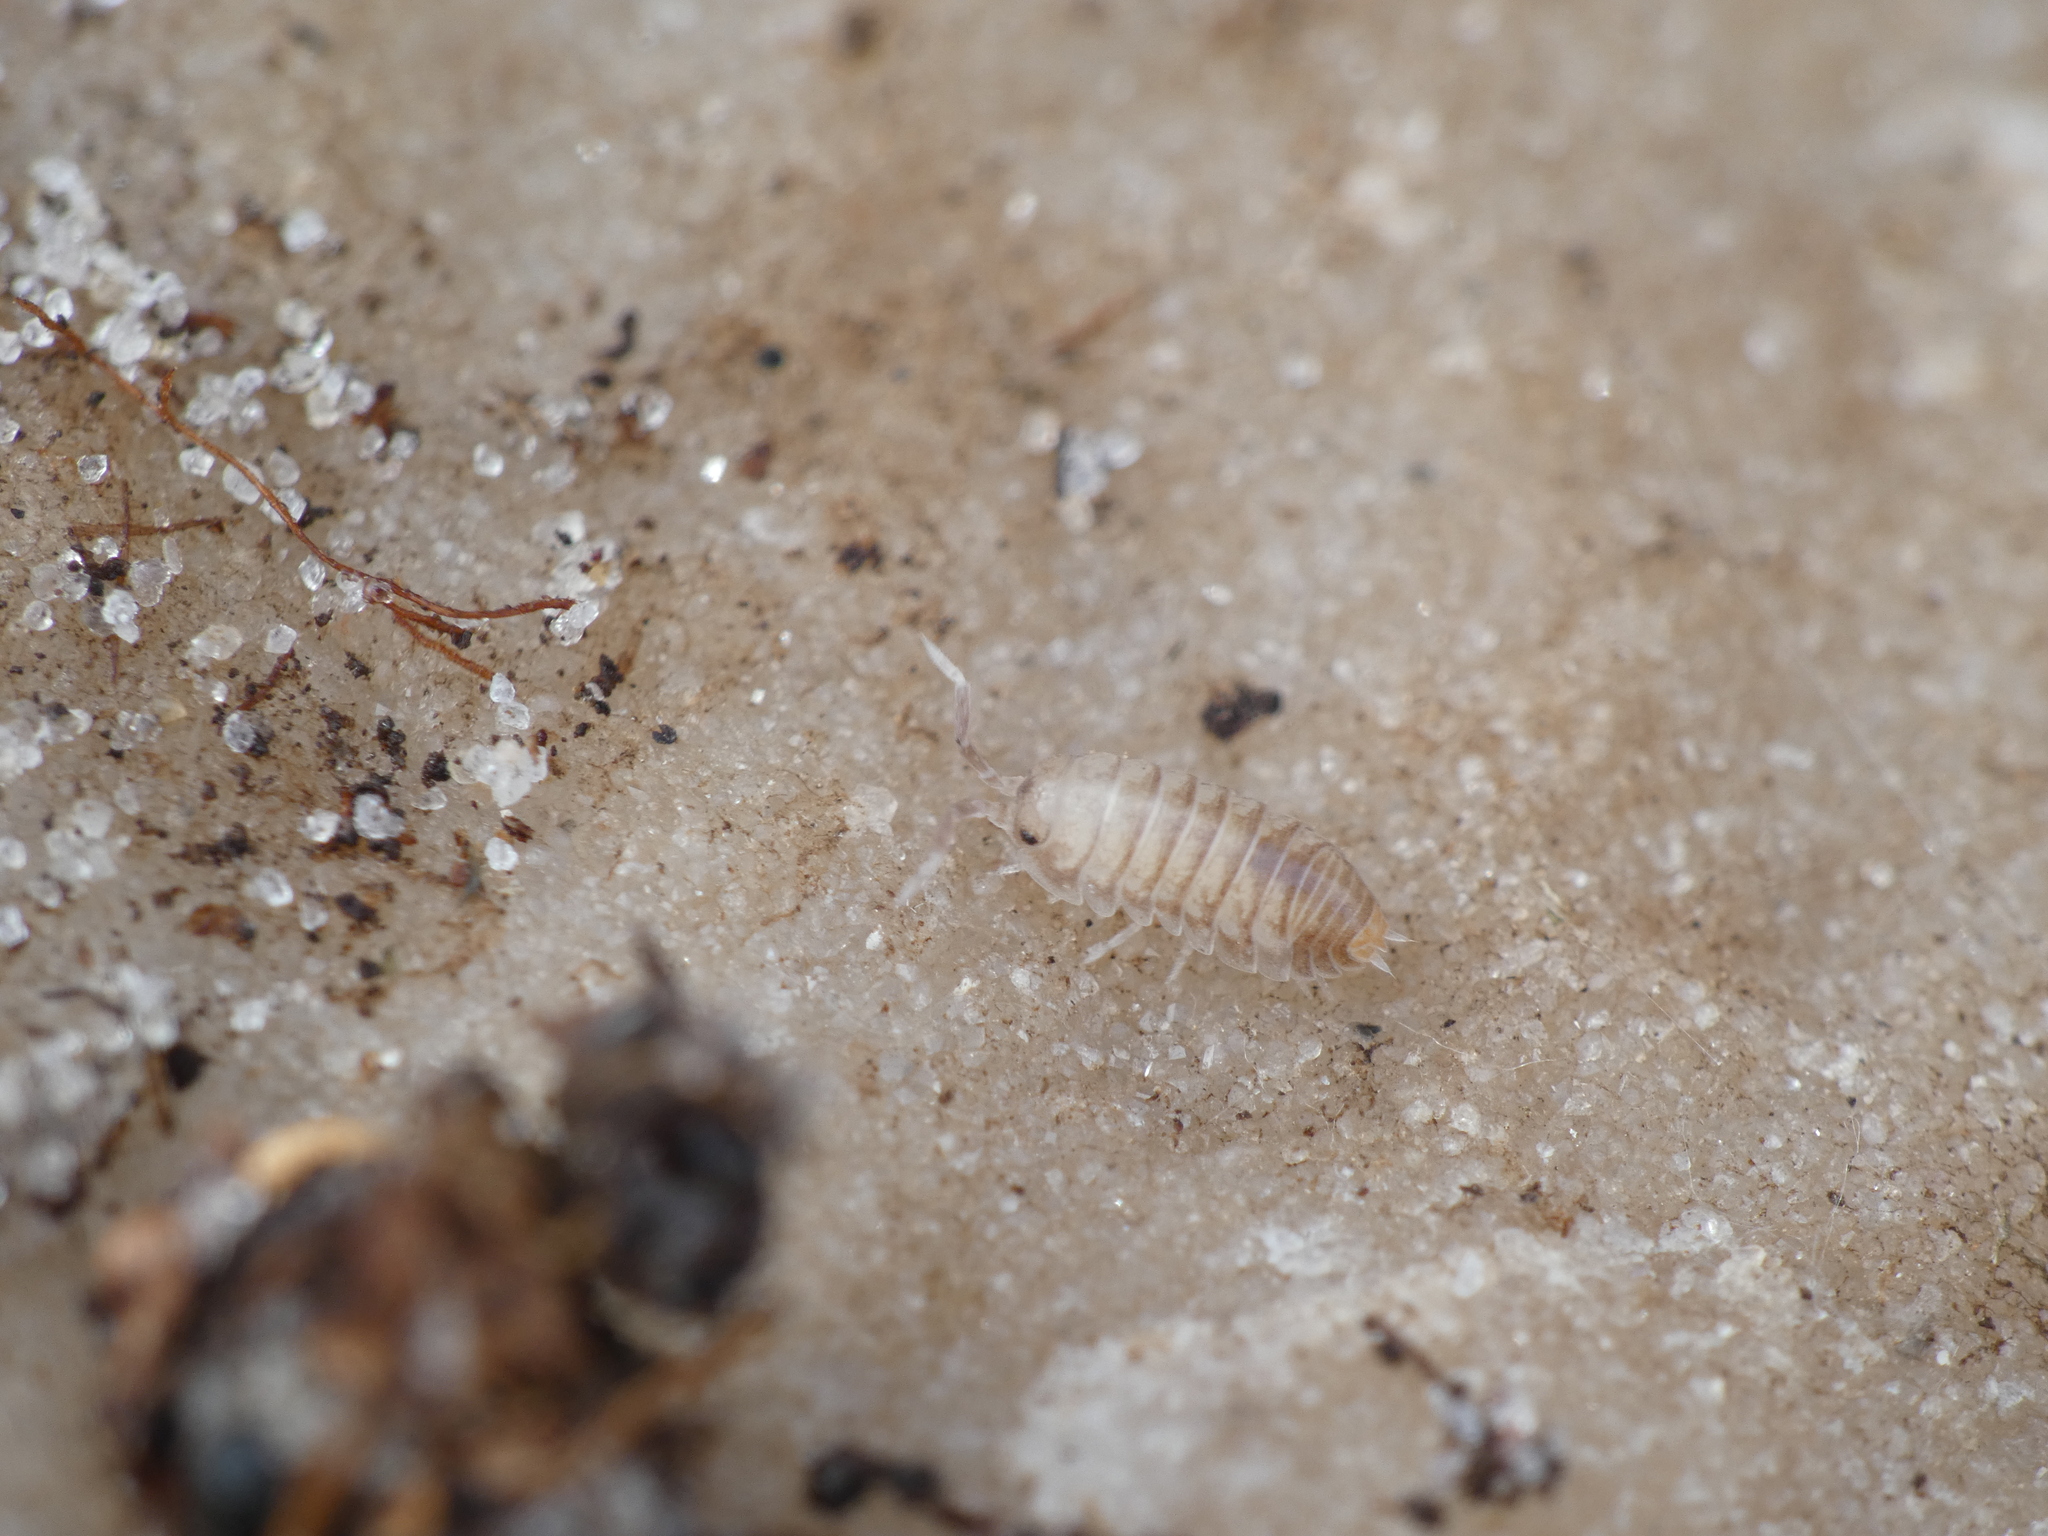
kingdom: Animalia
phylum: Arthropoda
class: Malacostraca
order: Isopoda
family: Cylisticidae
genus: Cylisticus
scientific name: Cylisticus convexus
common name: Curly woodlouse
